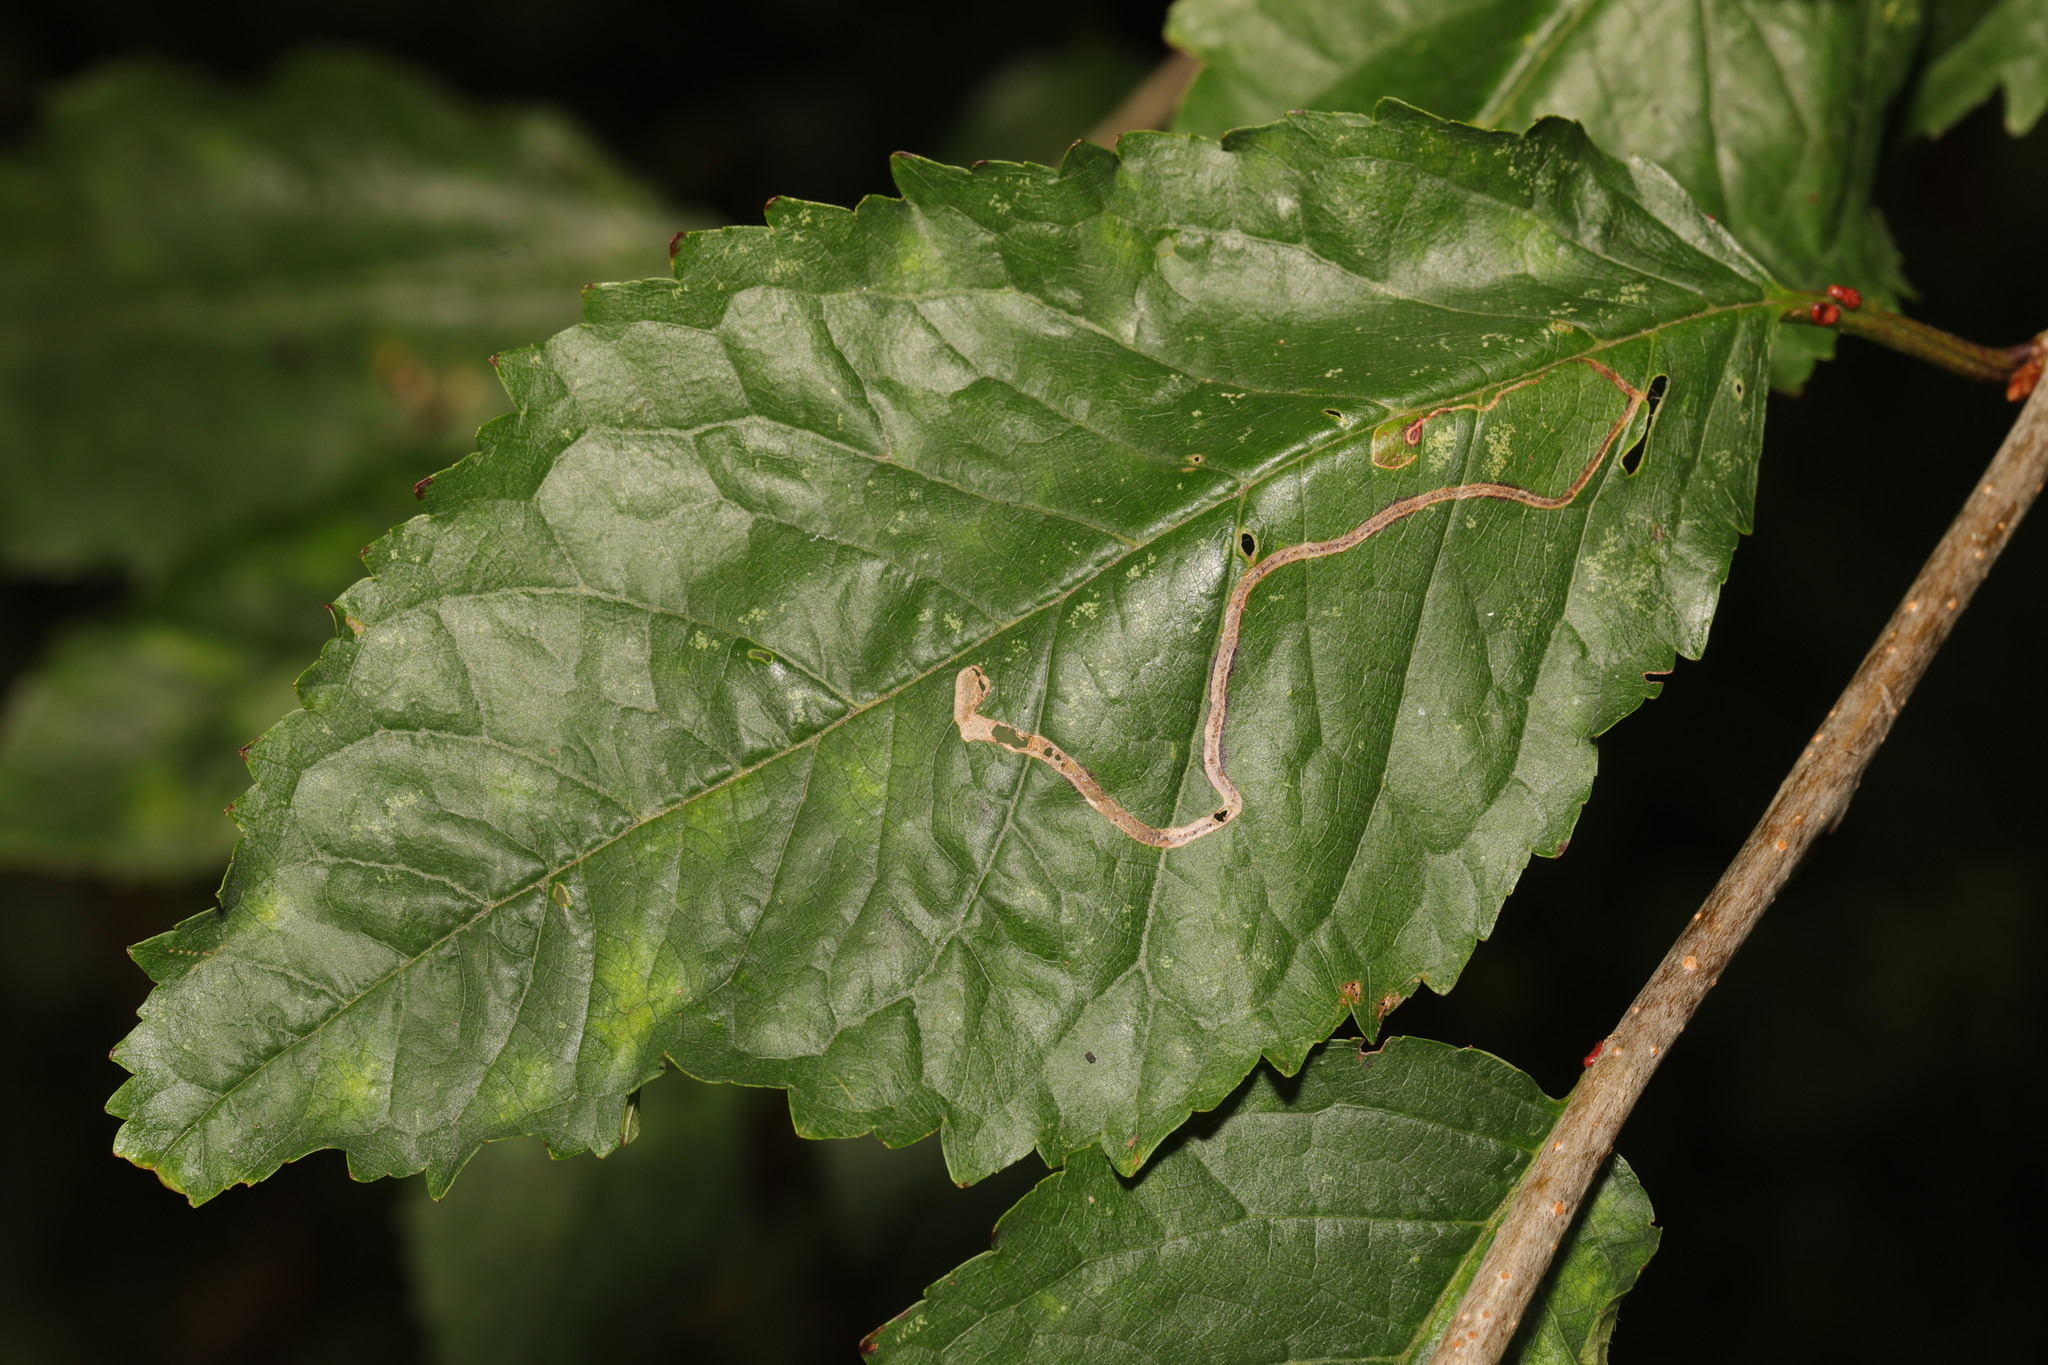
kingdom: Animalia
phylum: Arthropoda
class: Insecta
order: Lepidoptera
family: Lyonetiidae
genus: Lyonetia
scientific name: Lyonetia clerkella
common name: Apple leaf miner
